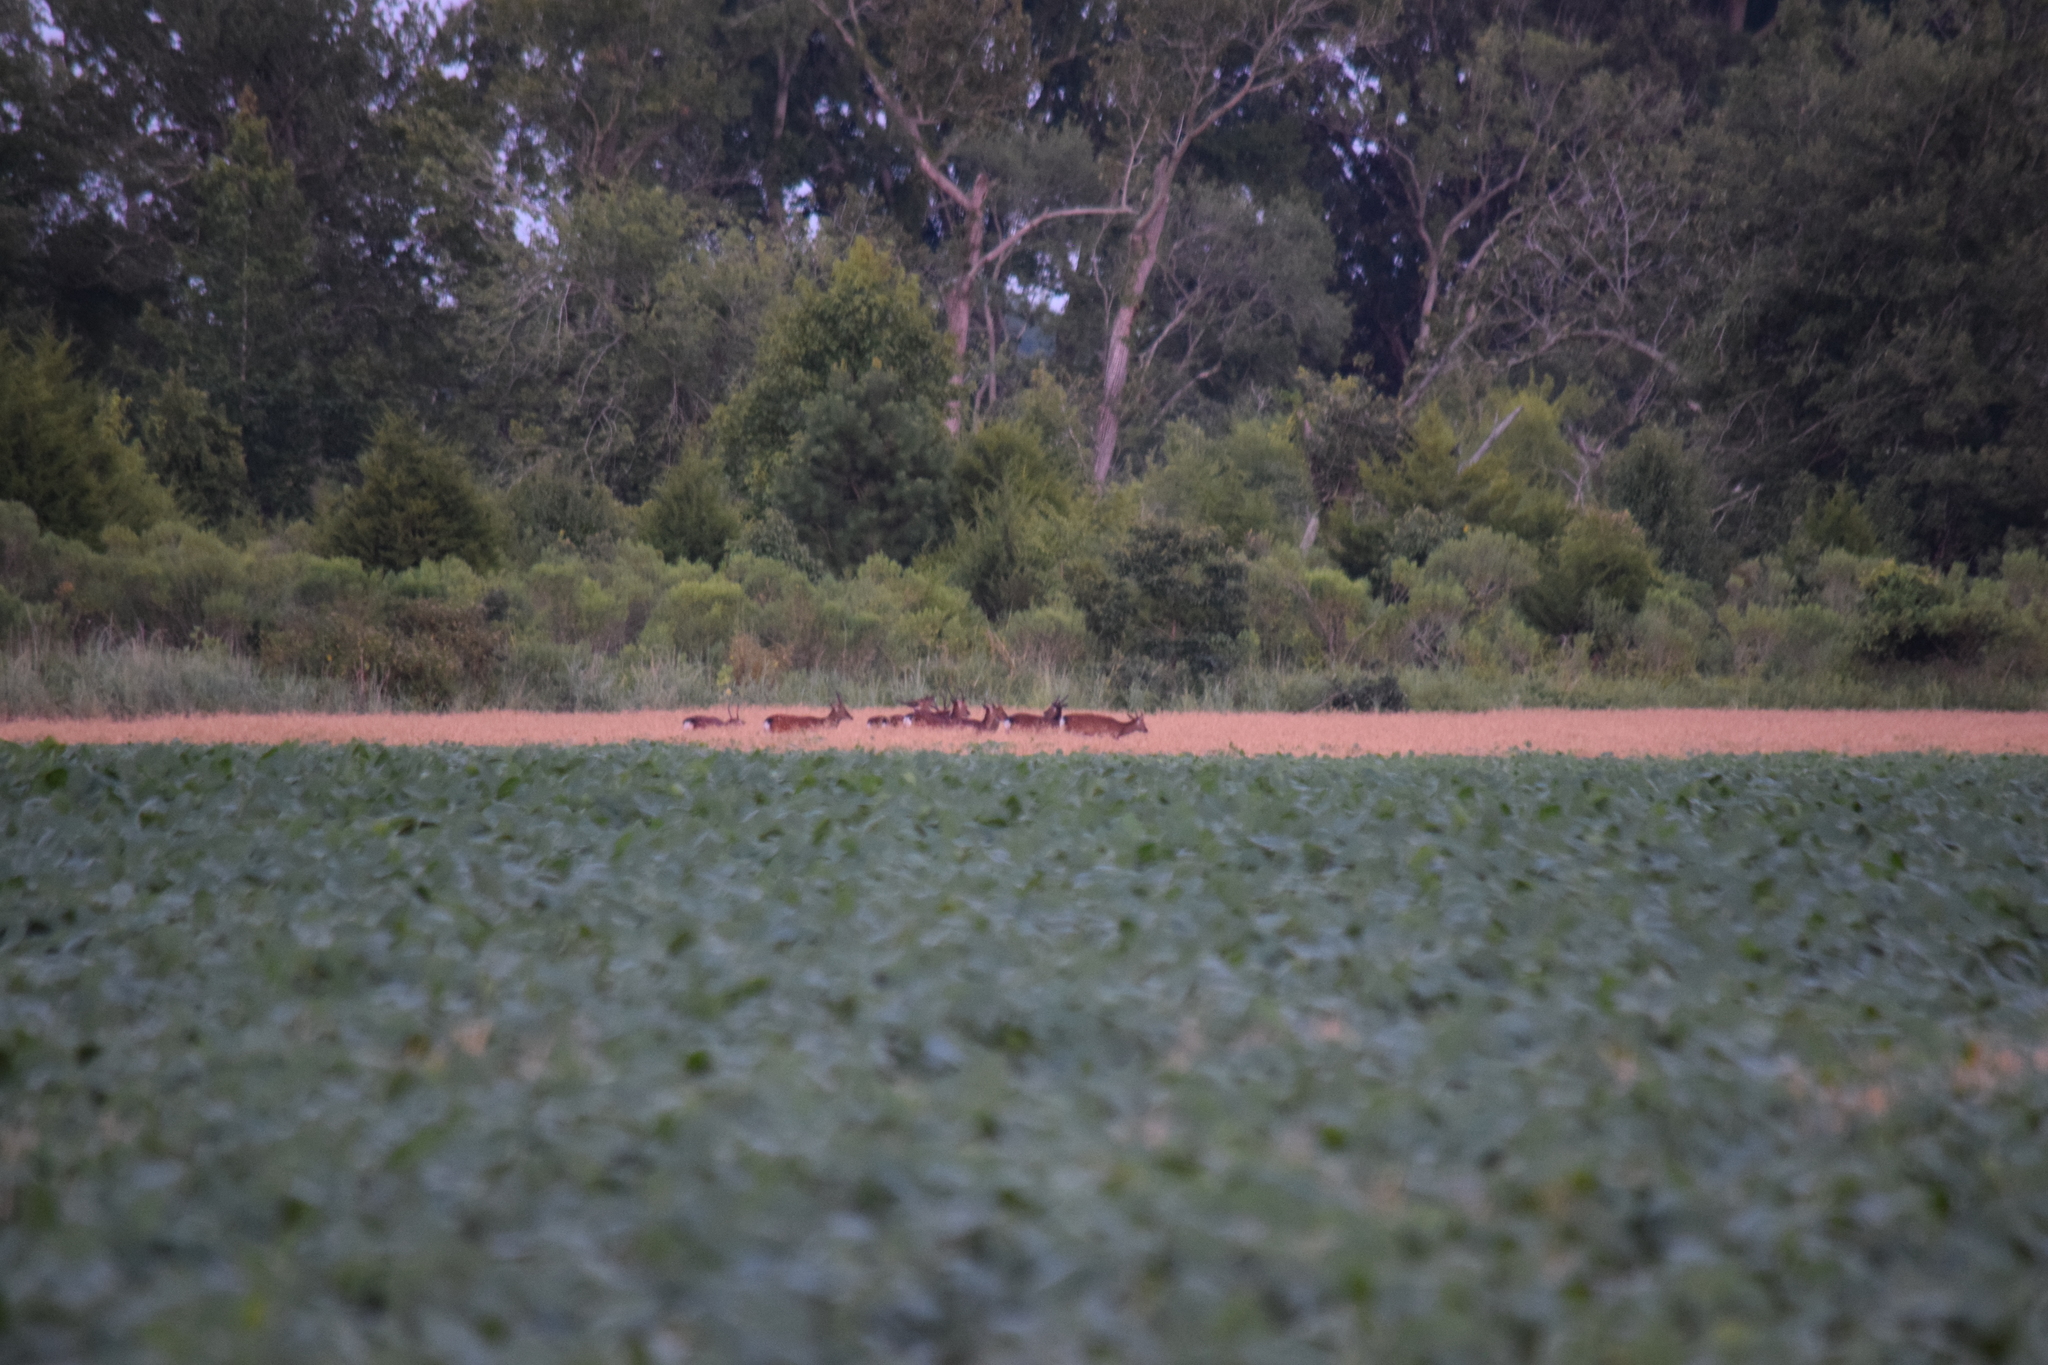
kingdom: Animalia
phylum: Chordata
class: Mammalia
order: Artiodactyla
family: Cervidae
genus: Cervus
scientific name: Cervus nippon
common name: Sika deer
